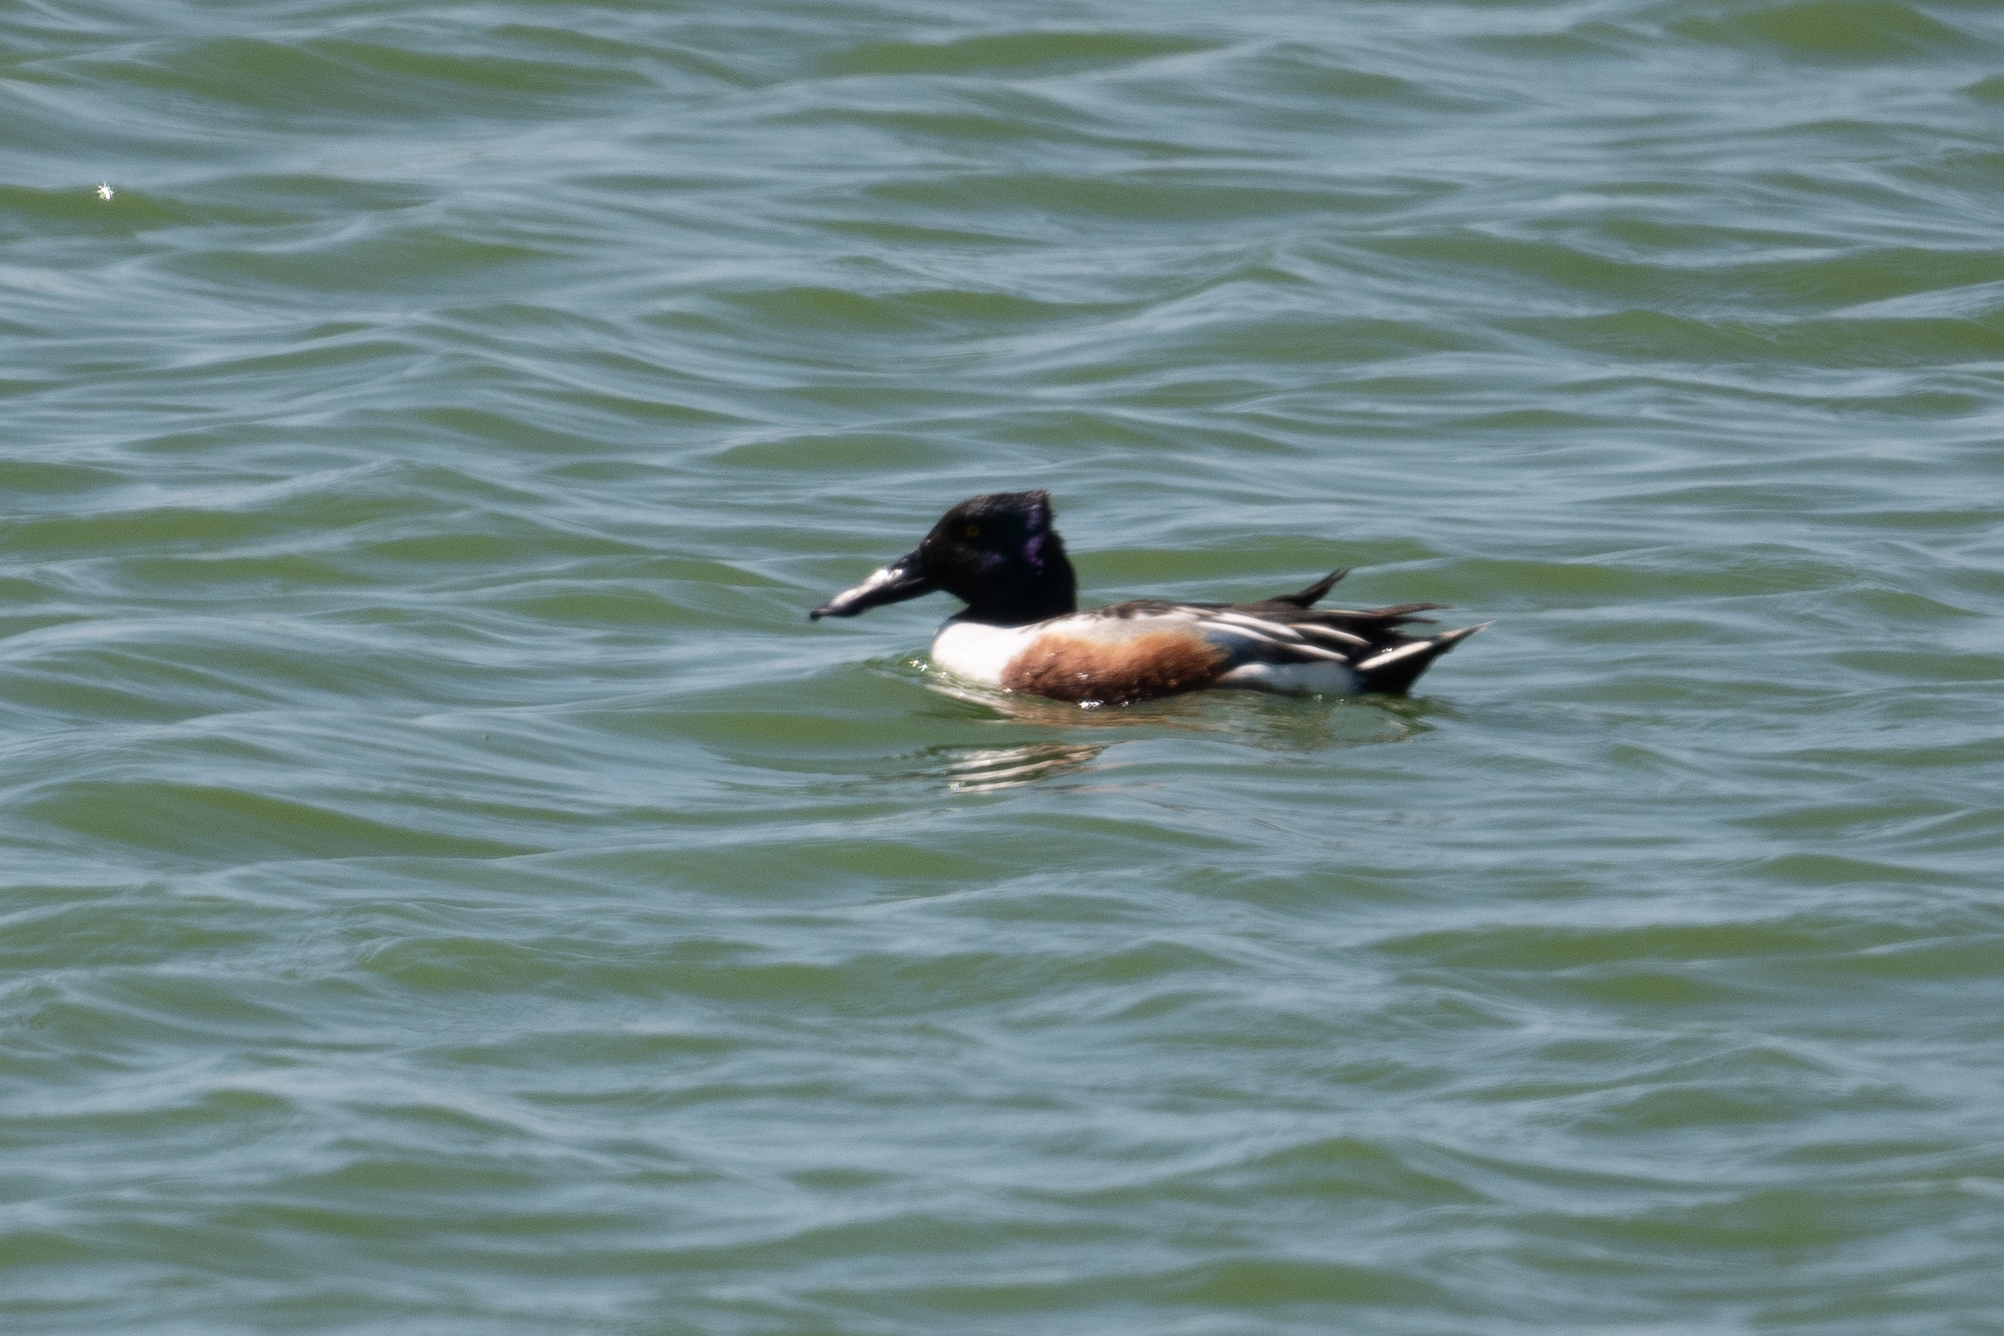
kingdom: Animalia
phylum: Chordata
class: Aves
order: Anseriformes
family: Anatidae
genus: Spatula
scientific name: Spatula clypeata
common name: Northern shoveler
